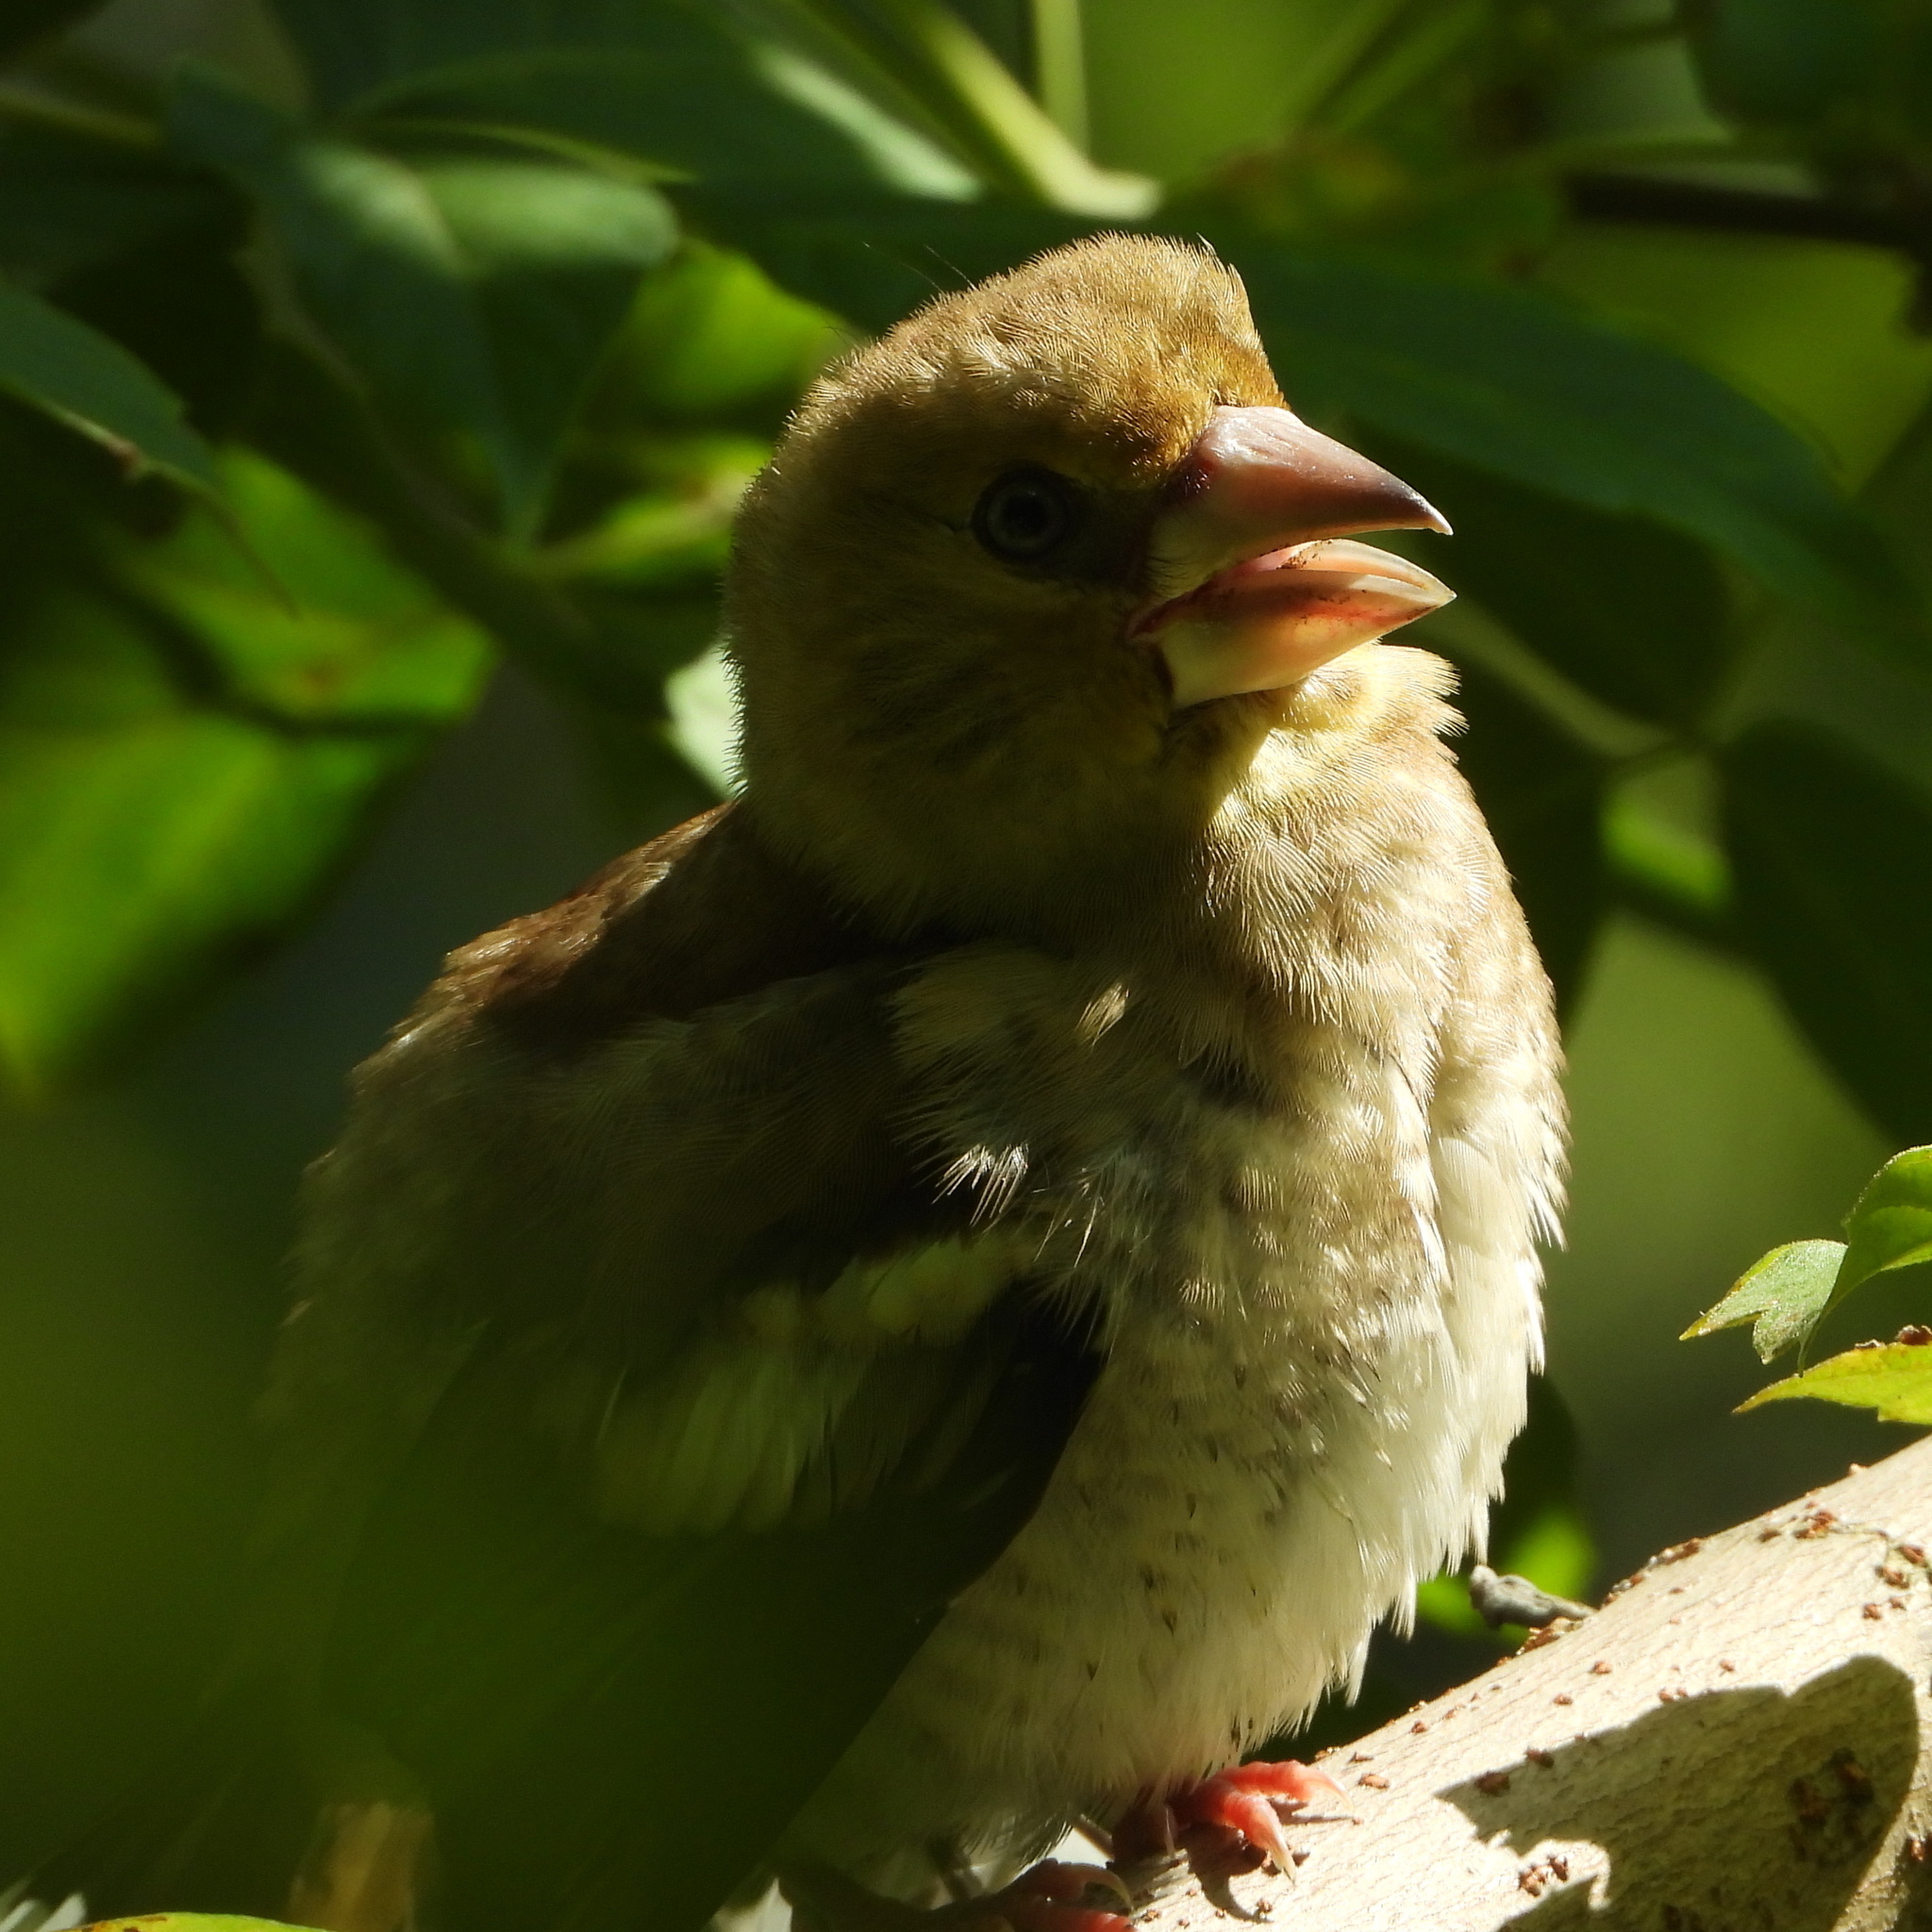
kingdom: Animalia
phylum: Chordata
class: Aves
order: Passeriformes
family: Fringillidae
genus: Coccothraustes
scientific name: Coccothraustes coccothraustes
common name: Hawfinch
